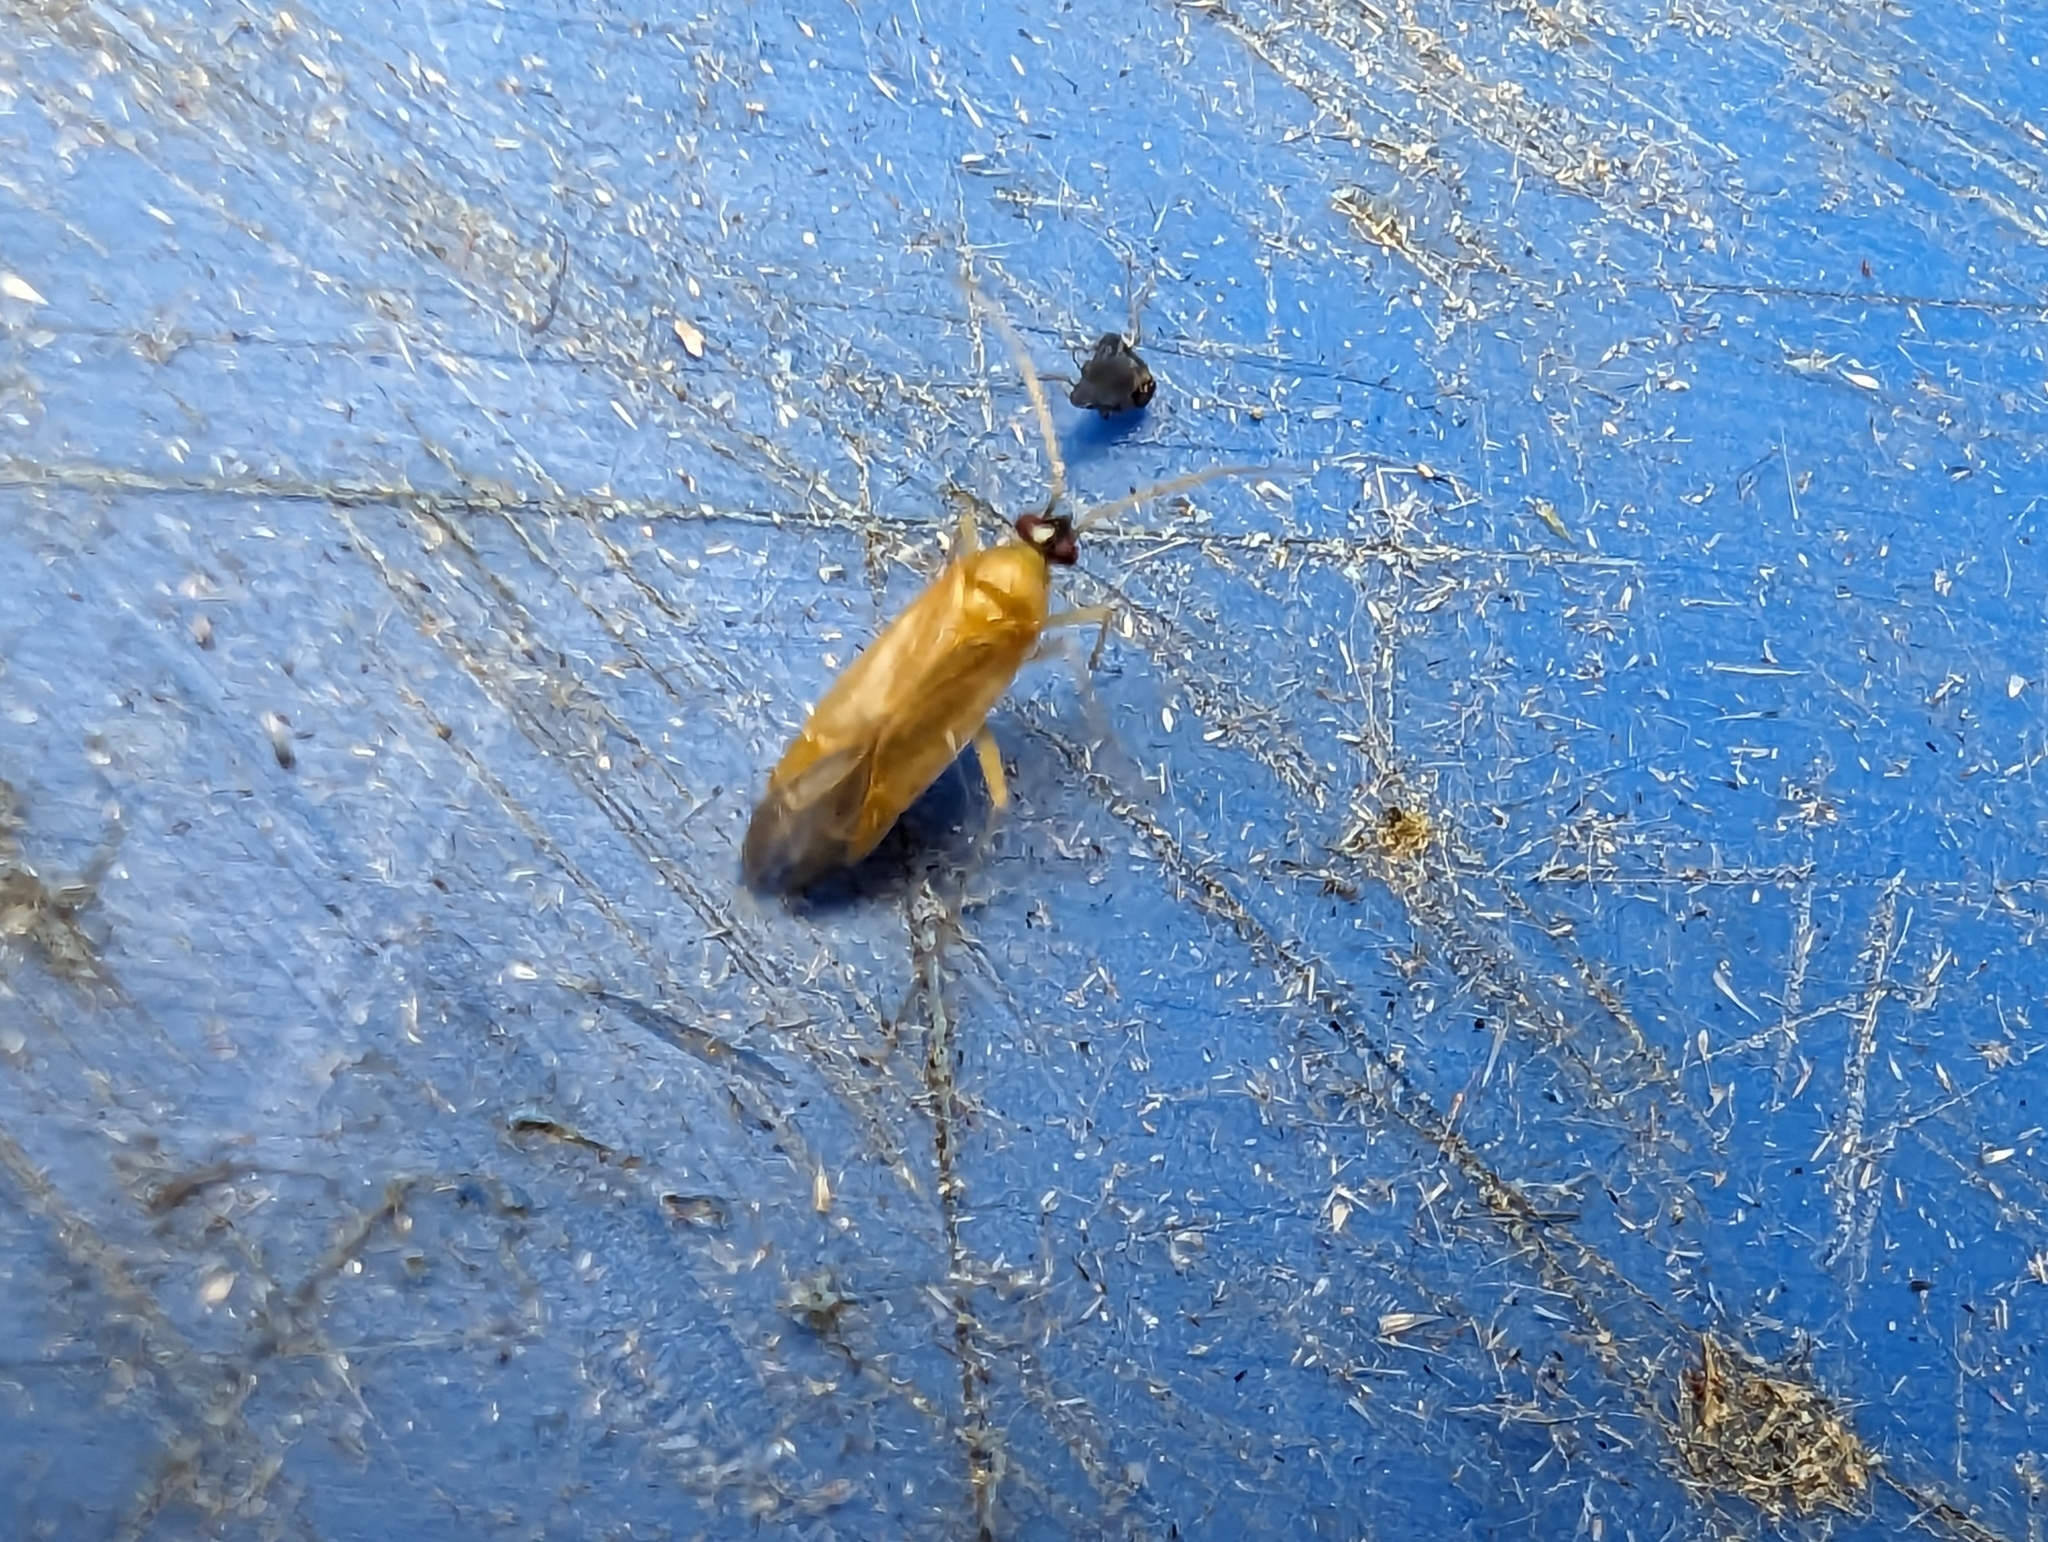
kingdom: Animalia
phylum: Arthropoda
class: Insecta
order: Hemiptera
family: Miridae
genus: Phylus
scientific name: Phylus melanocephalus
